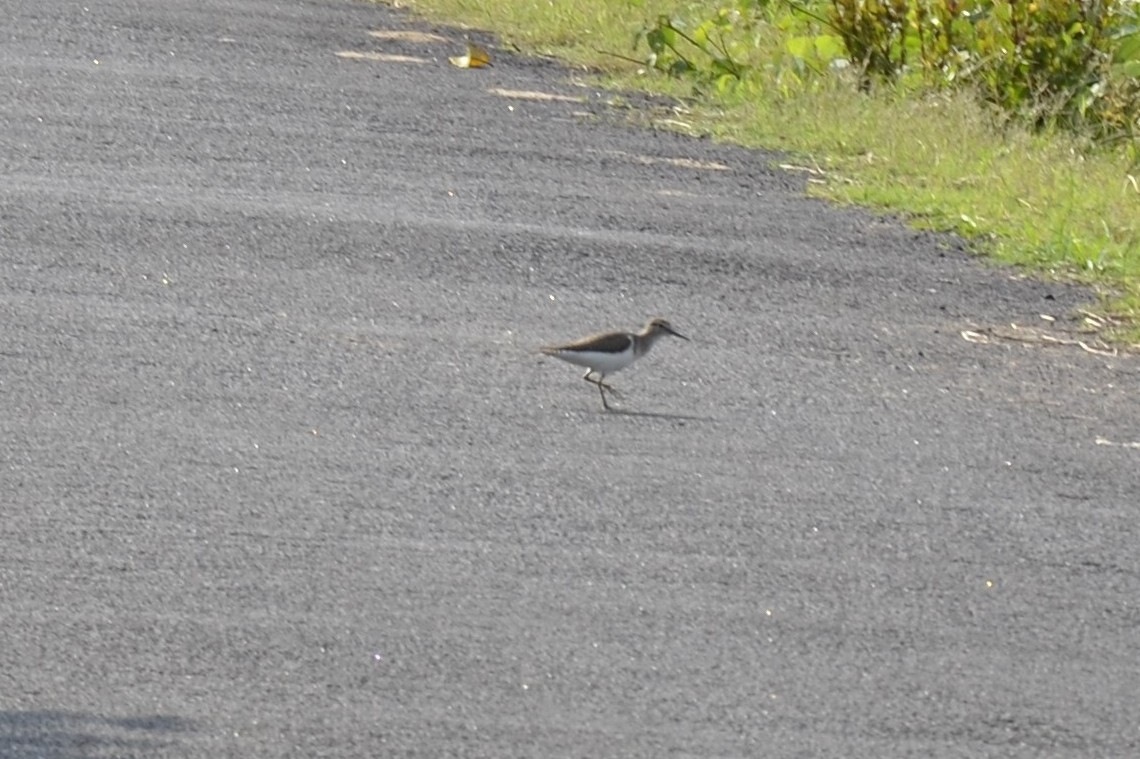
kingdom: Animalia
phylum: Chordata
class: Aves
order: Charadriiformes
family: Scolopacidae
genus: Actitis
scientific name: Actitis hypoleucos
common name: Common sandpiper
